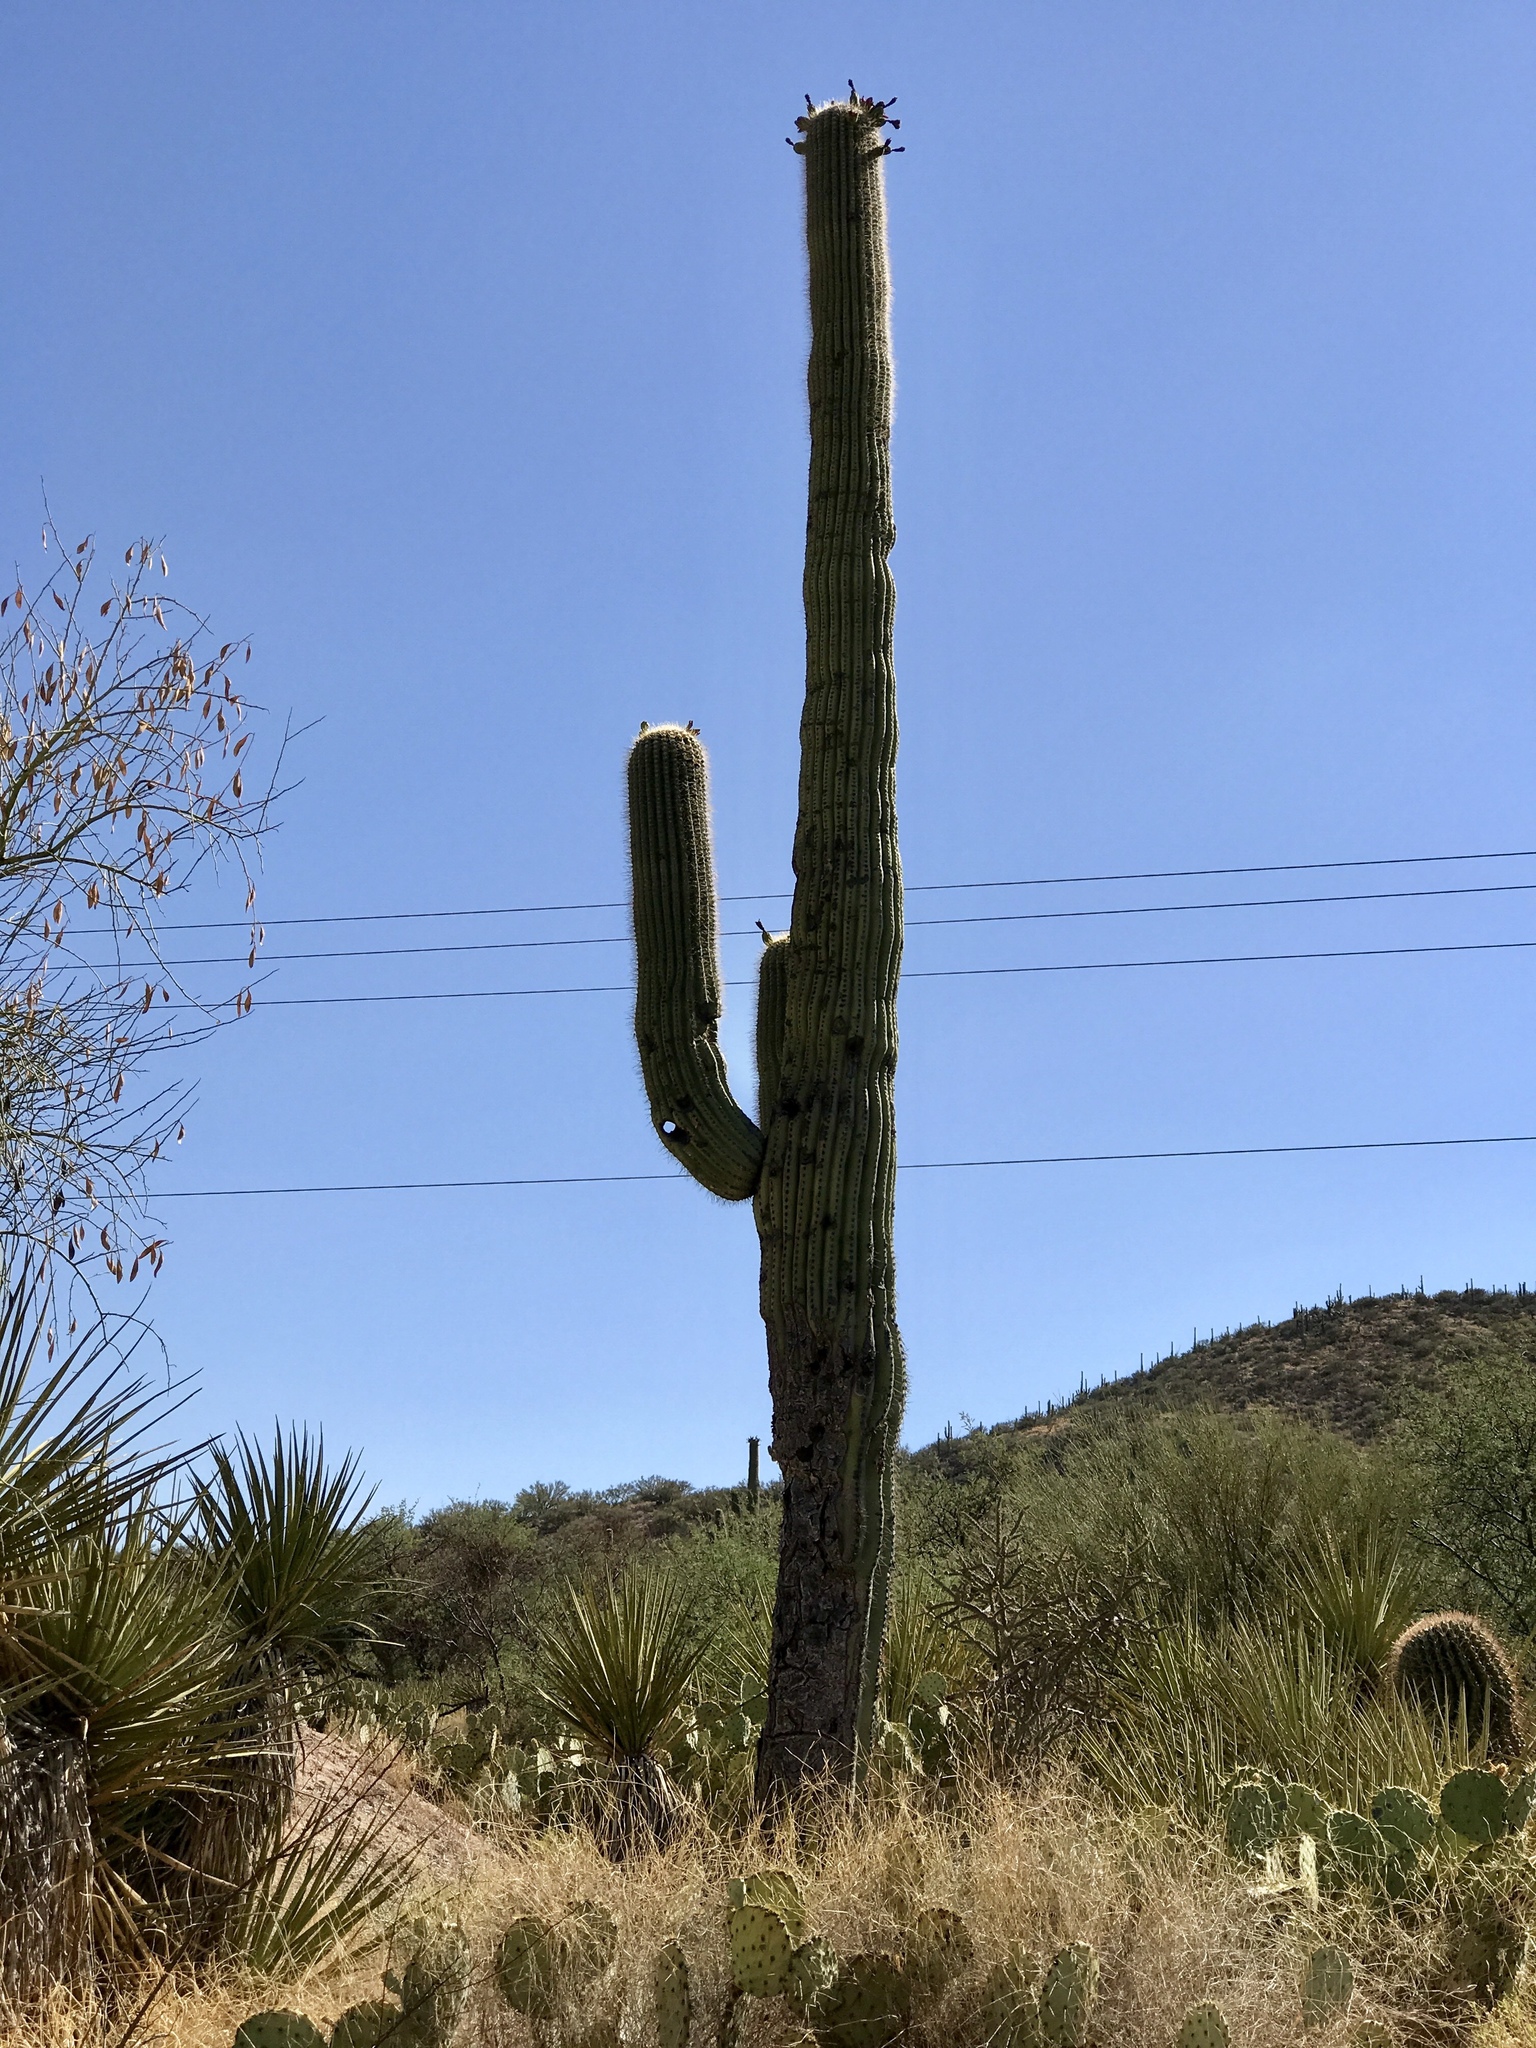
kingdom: Plantae
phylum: Tracheophyta
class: Magnoliopsida
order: Caryophyllales
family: Cactaceae
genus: Carnegiea
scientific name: Carnegiea gigantea
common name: Saguaro
